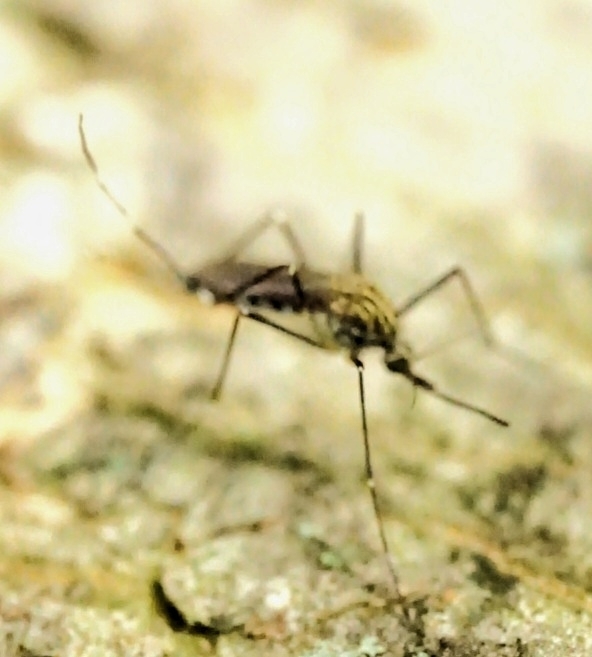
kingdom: Animalia
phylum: Arthropoda
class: Insecta
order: Diptera
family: Culicidae
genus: Aedes
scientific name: Aedes japonicus
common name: Asian bush mosquito
